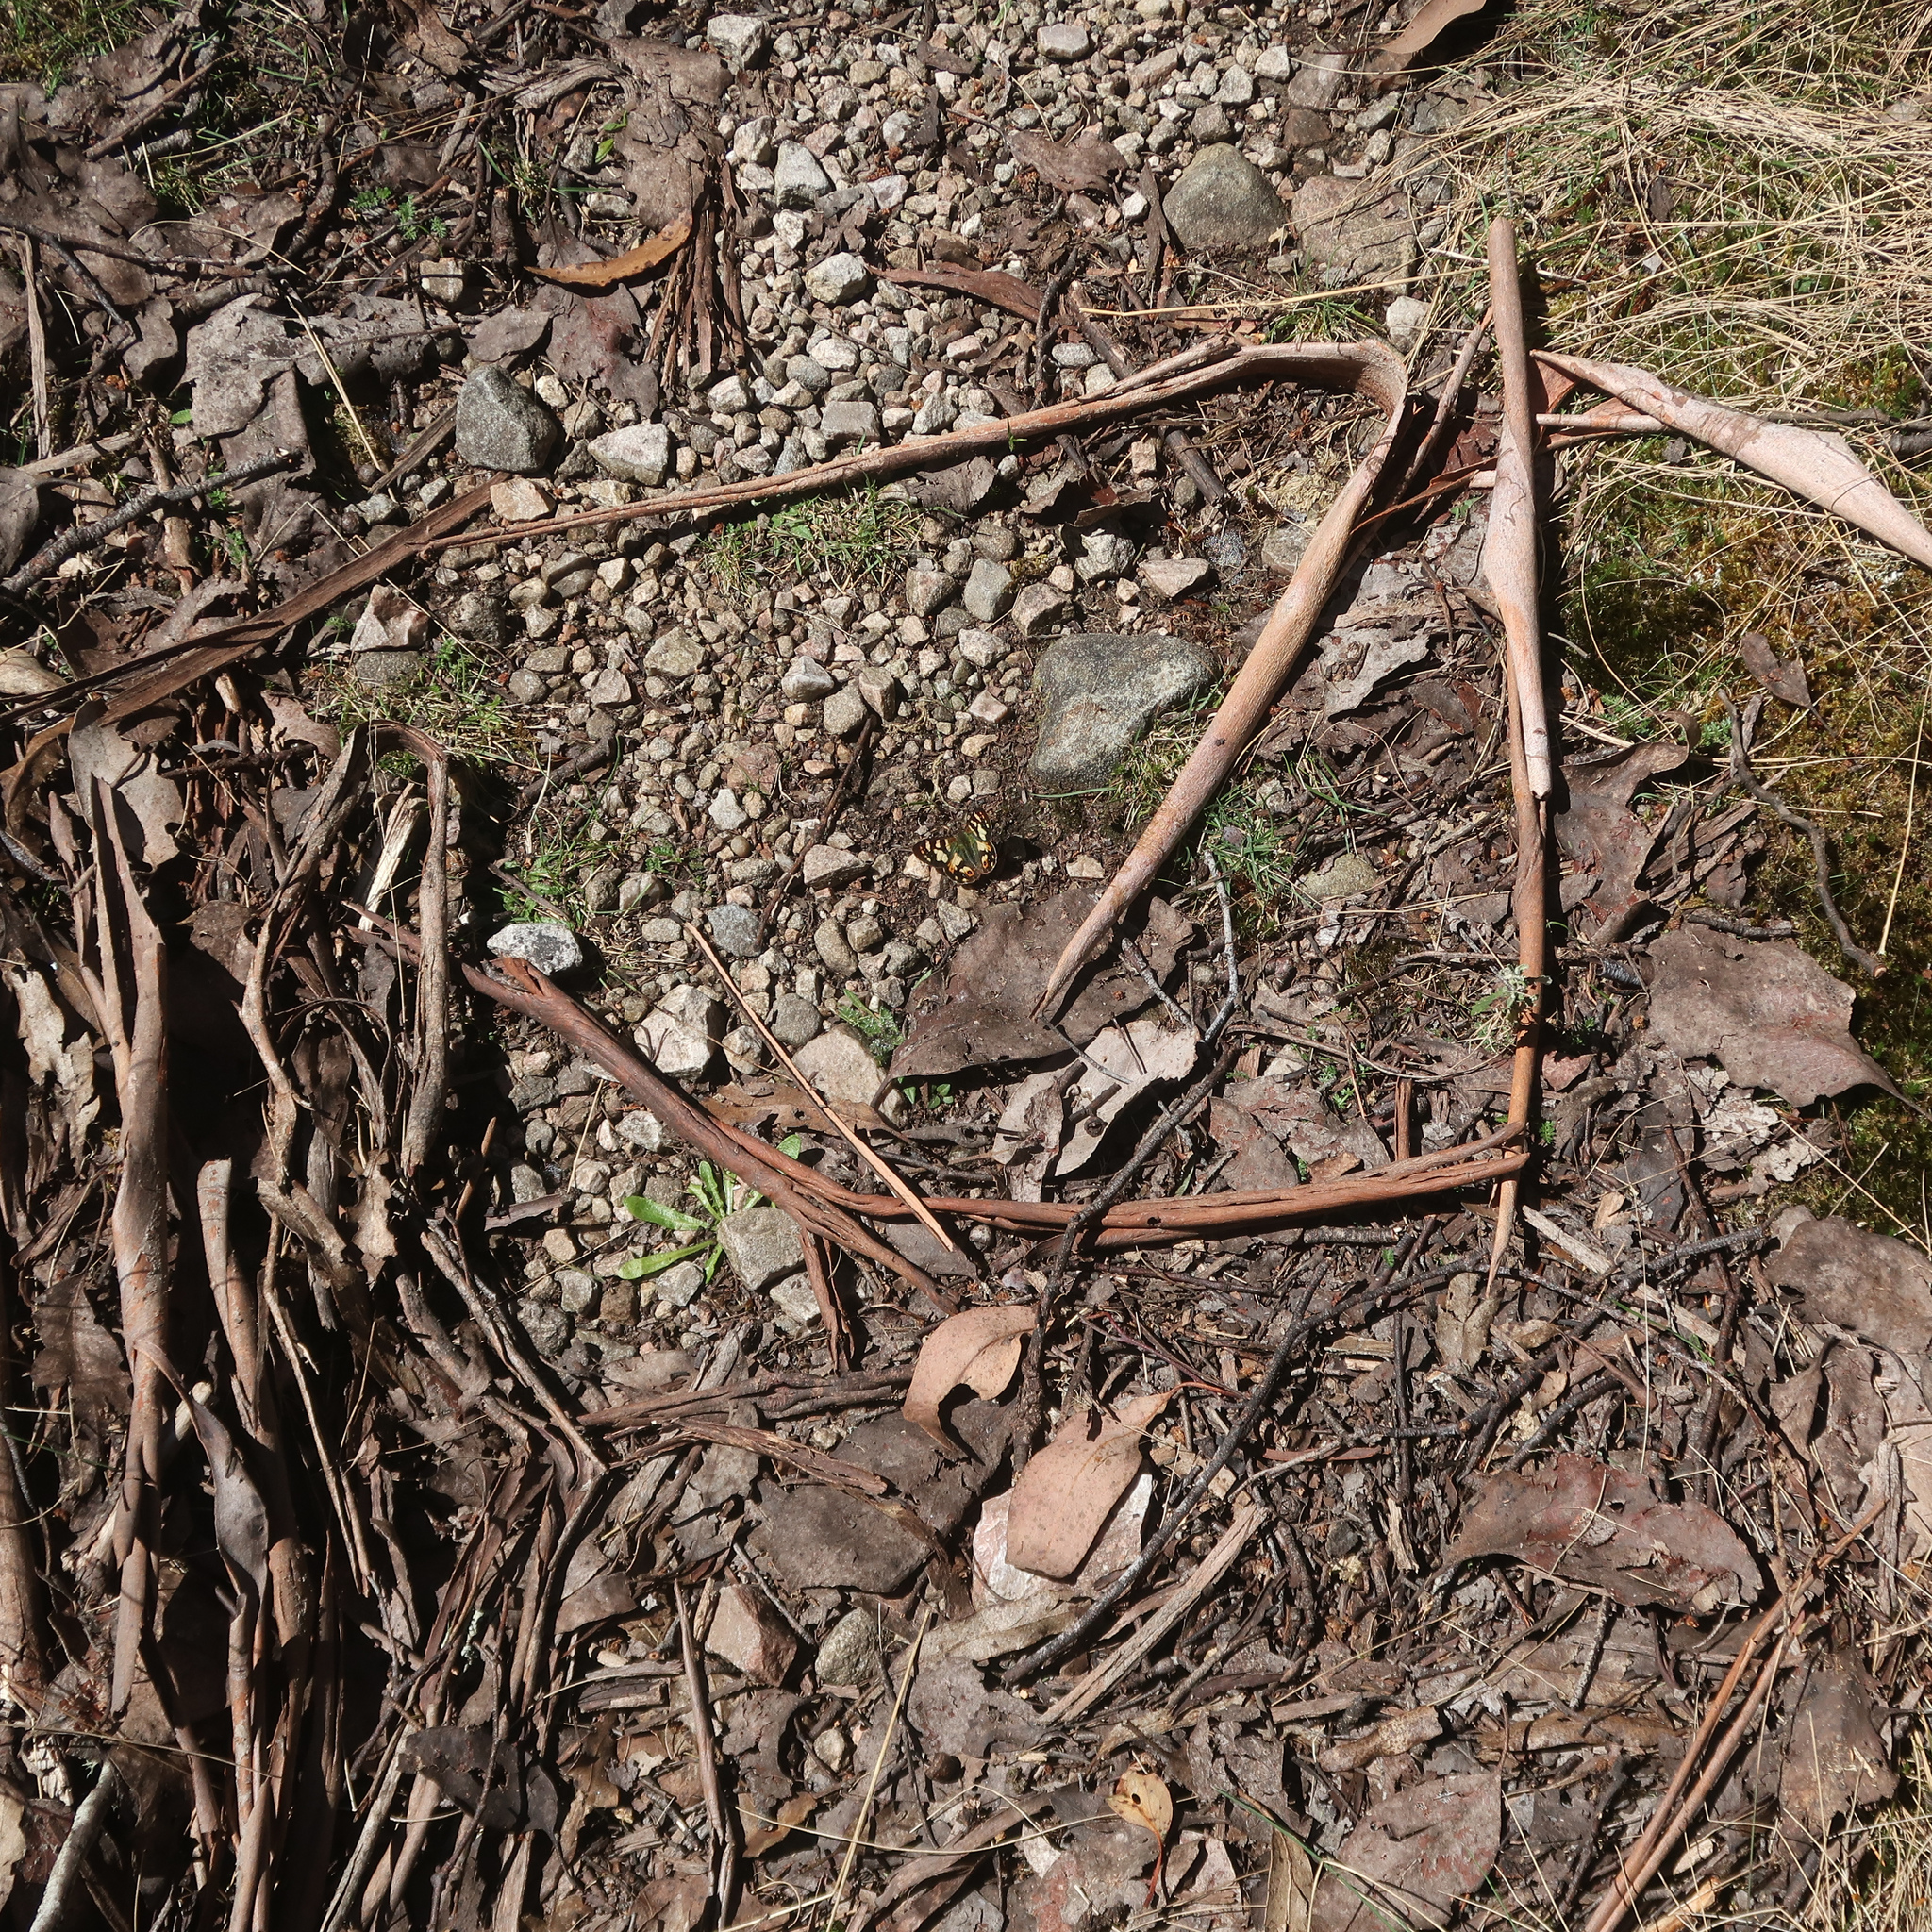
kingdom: Animalia
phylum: Arthropoda
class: Insecta
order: Lepidoptera
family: Nymphalidae
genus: Argynnina
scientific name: Argynnina hobartia
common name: Hobart brown
